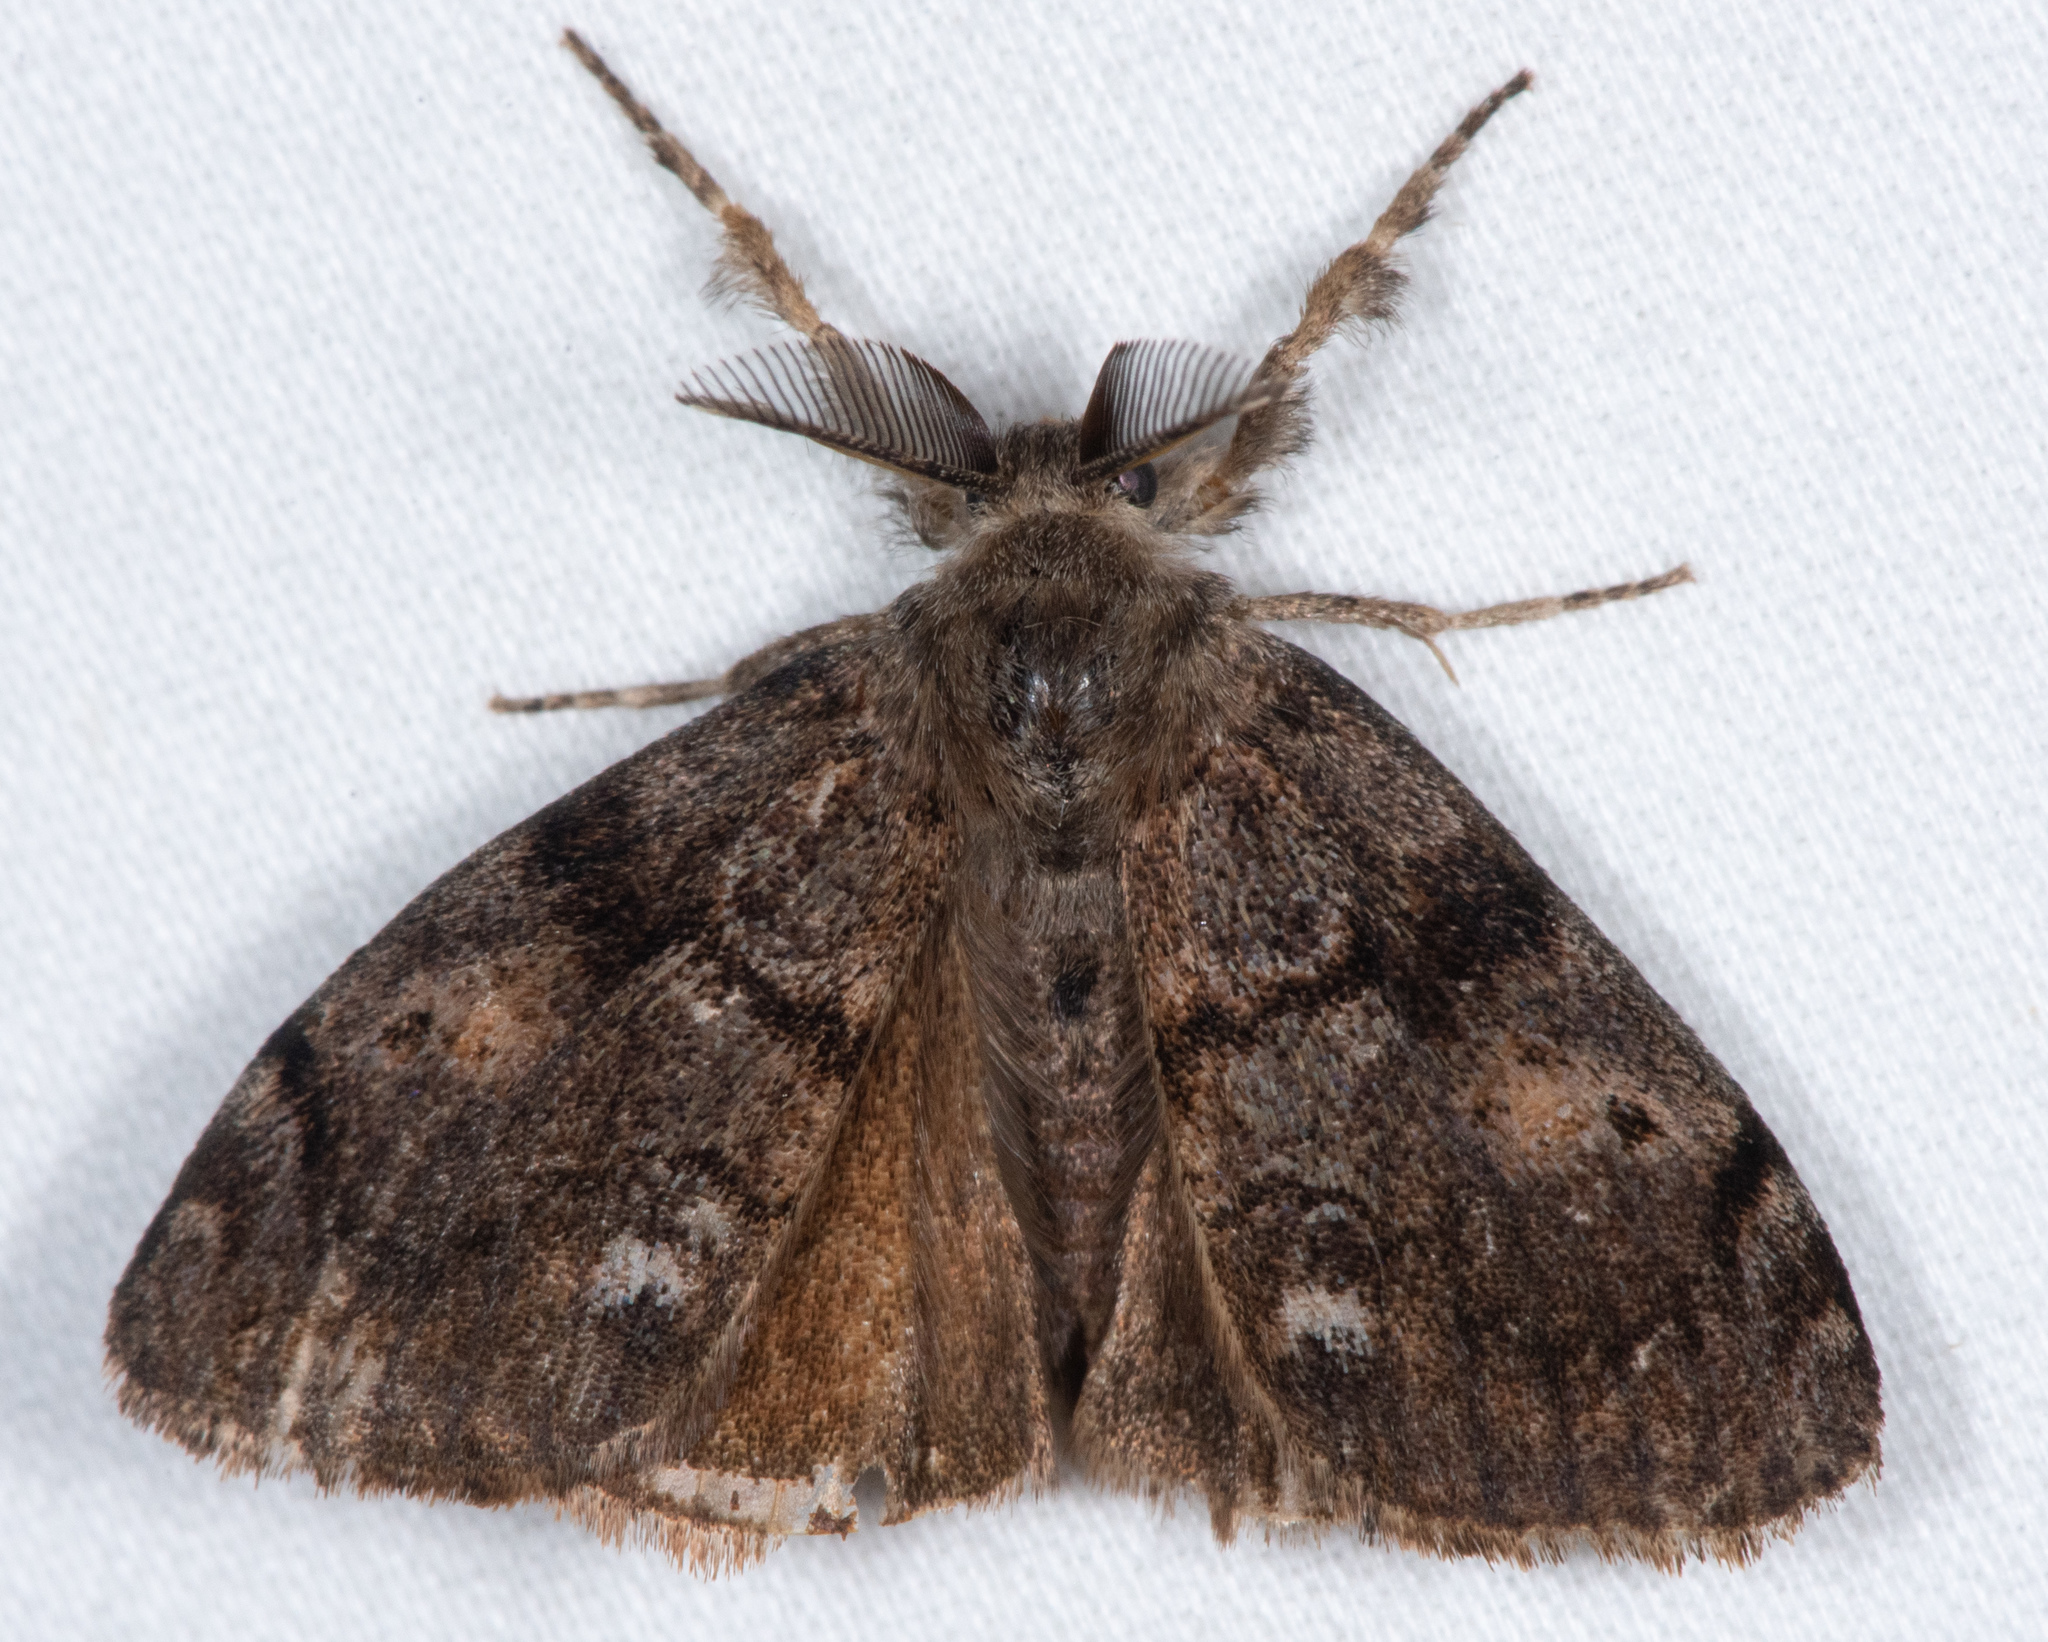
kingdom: Animalia
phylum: Arthropoda
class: Insecta
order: Lepidoptera
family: Erebidae
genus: Orgyia
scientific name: Orgyia vetusta
